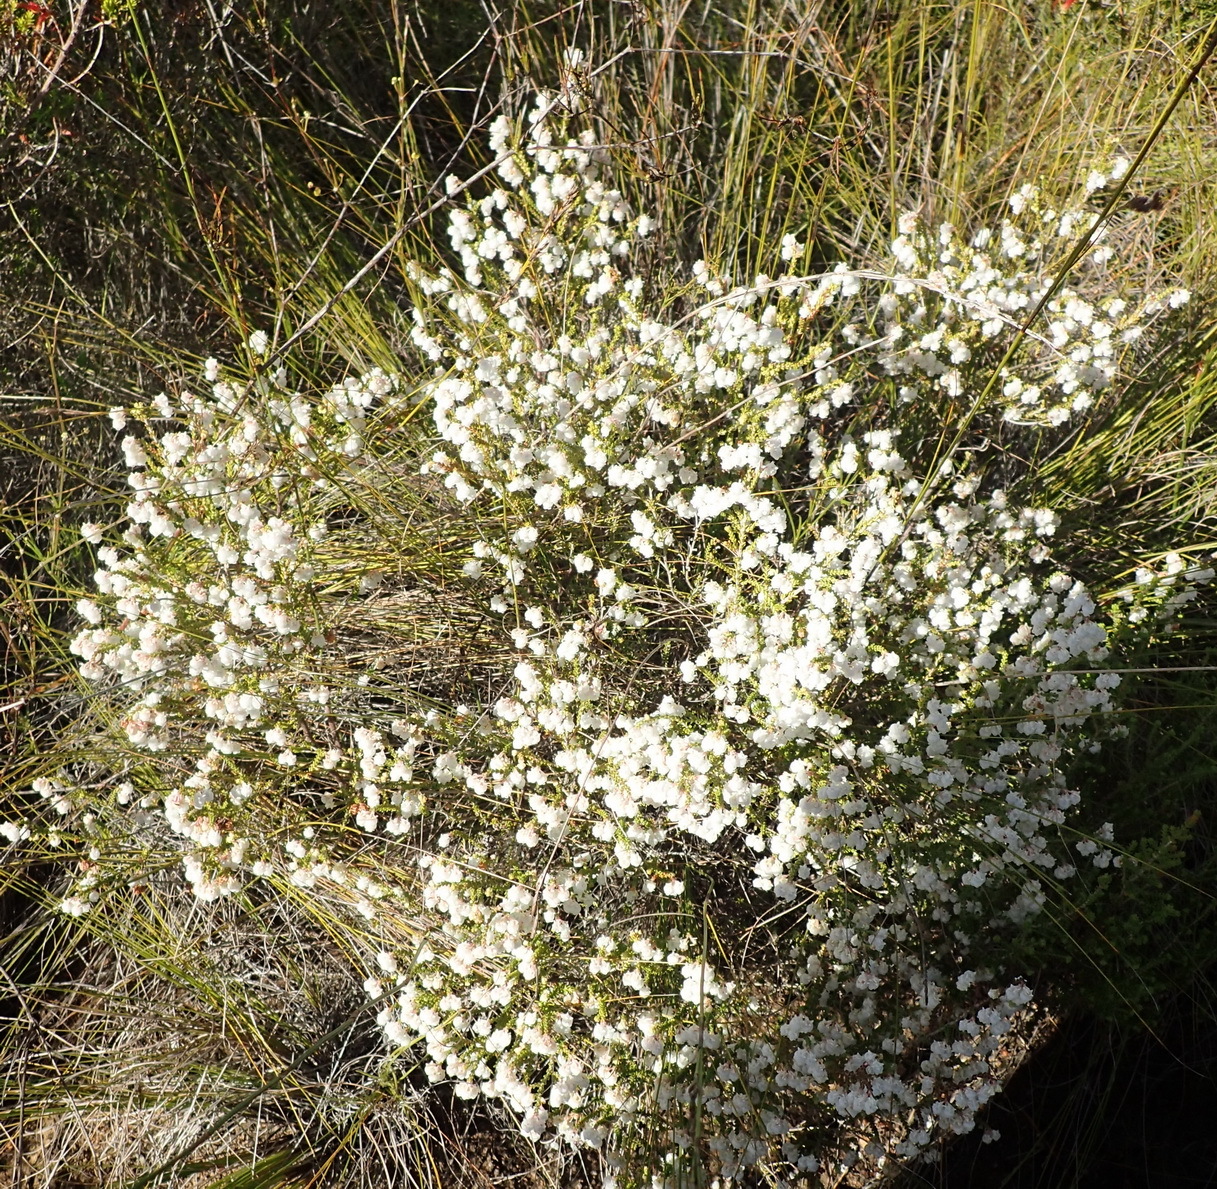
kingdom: Plantae
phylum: Tracheophyta
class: Magnoliopsida
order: Ericales
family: Ericaceae
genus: Erica
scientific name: Erica formosa
